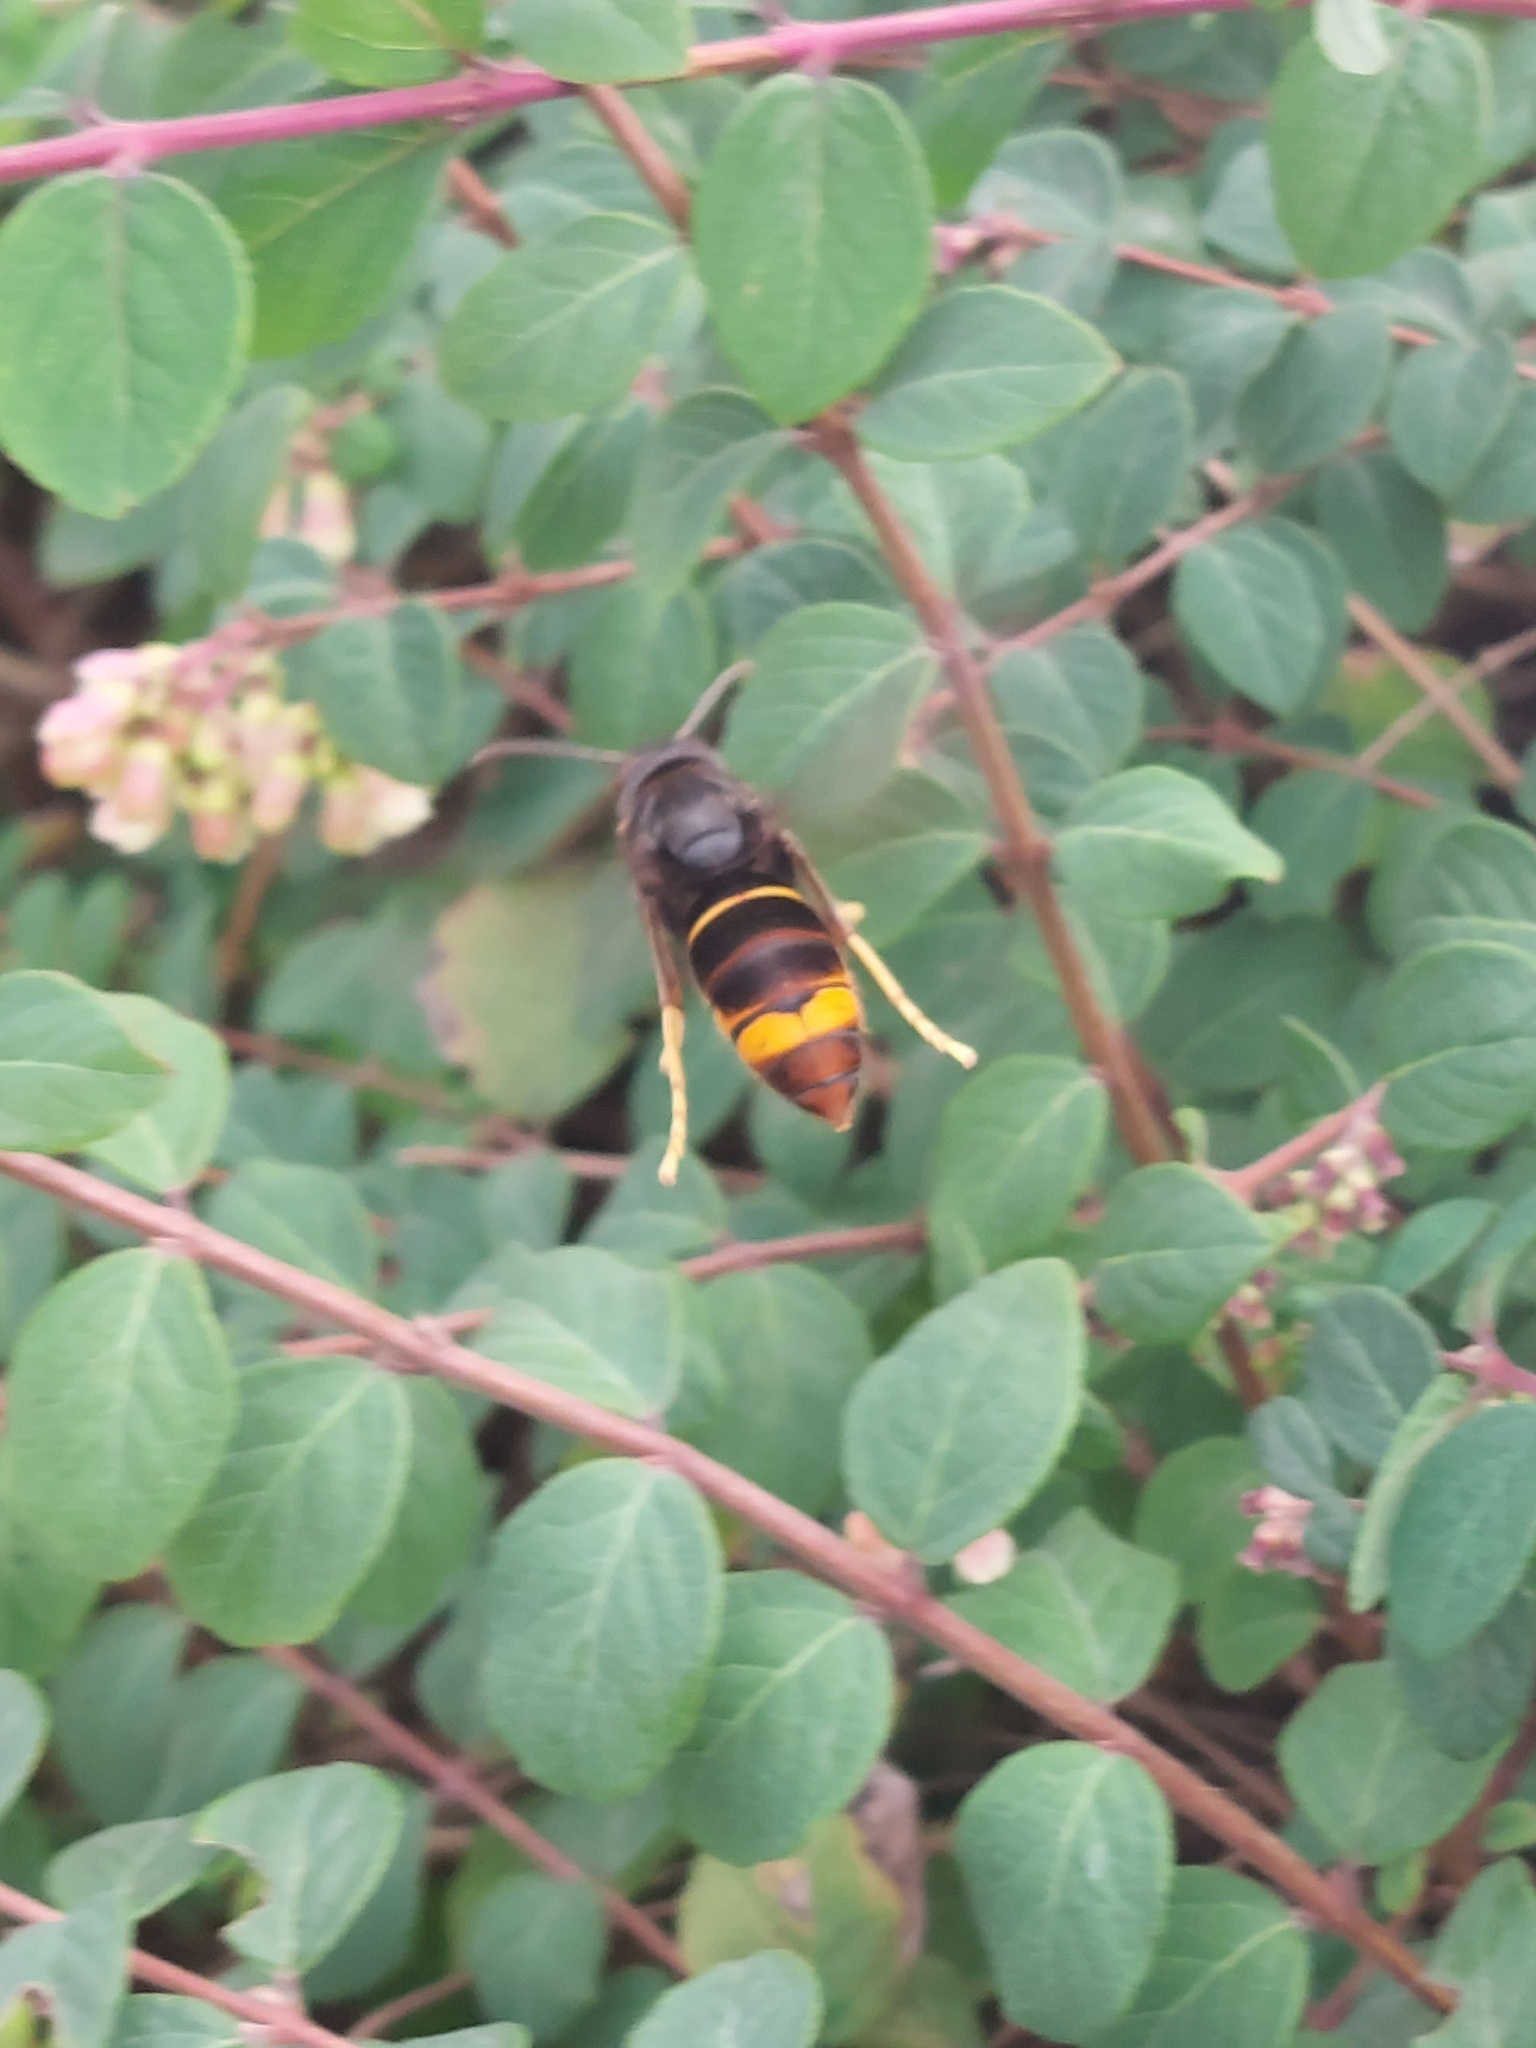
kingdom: Animalia
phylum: Arthropoda
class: Insecta
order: Hymenoptera
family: Vespidae
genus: Vespa
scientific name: Vespa velutina
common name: Asian hornet
